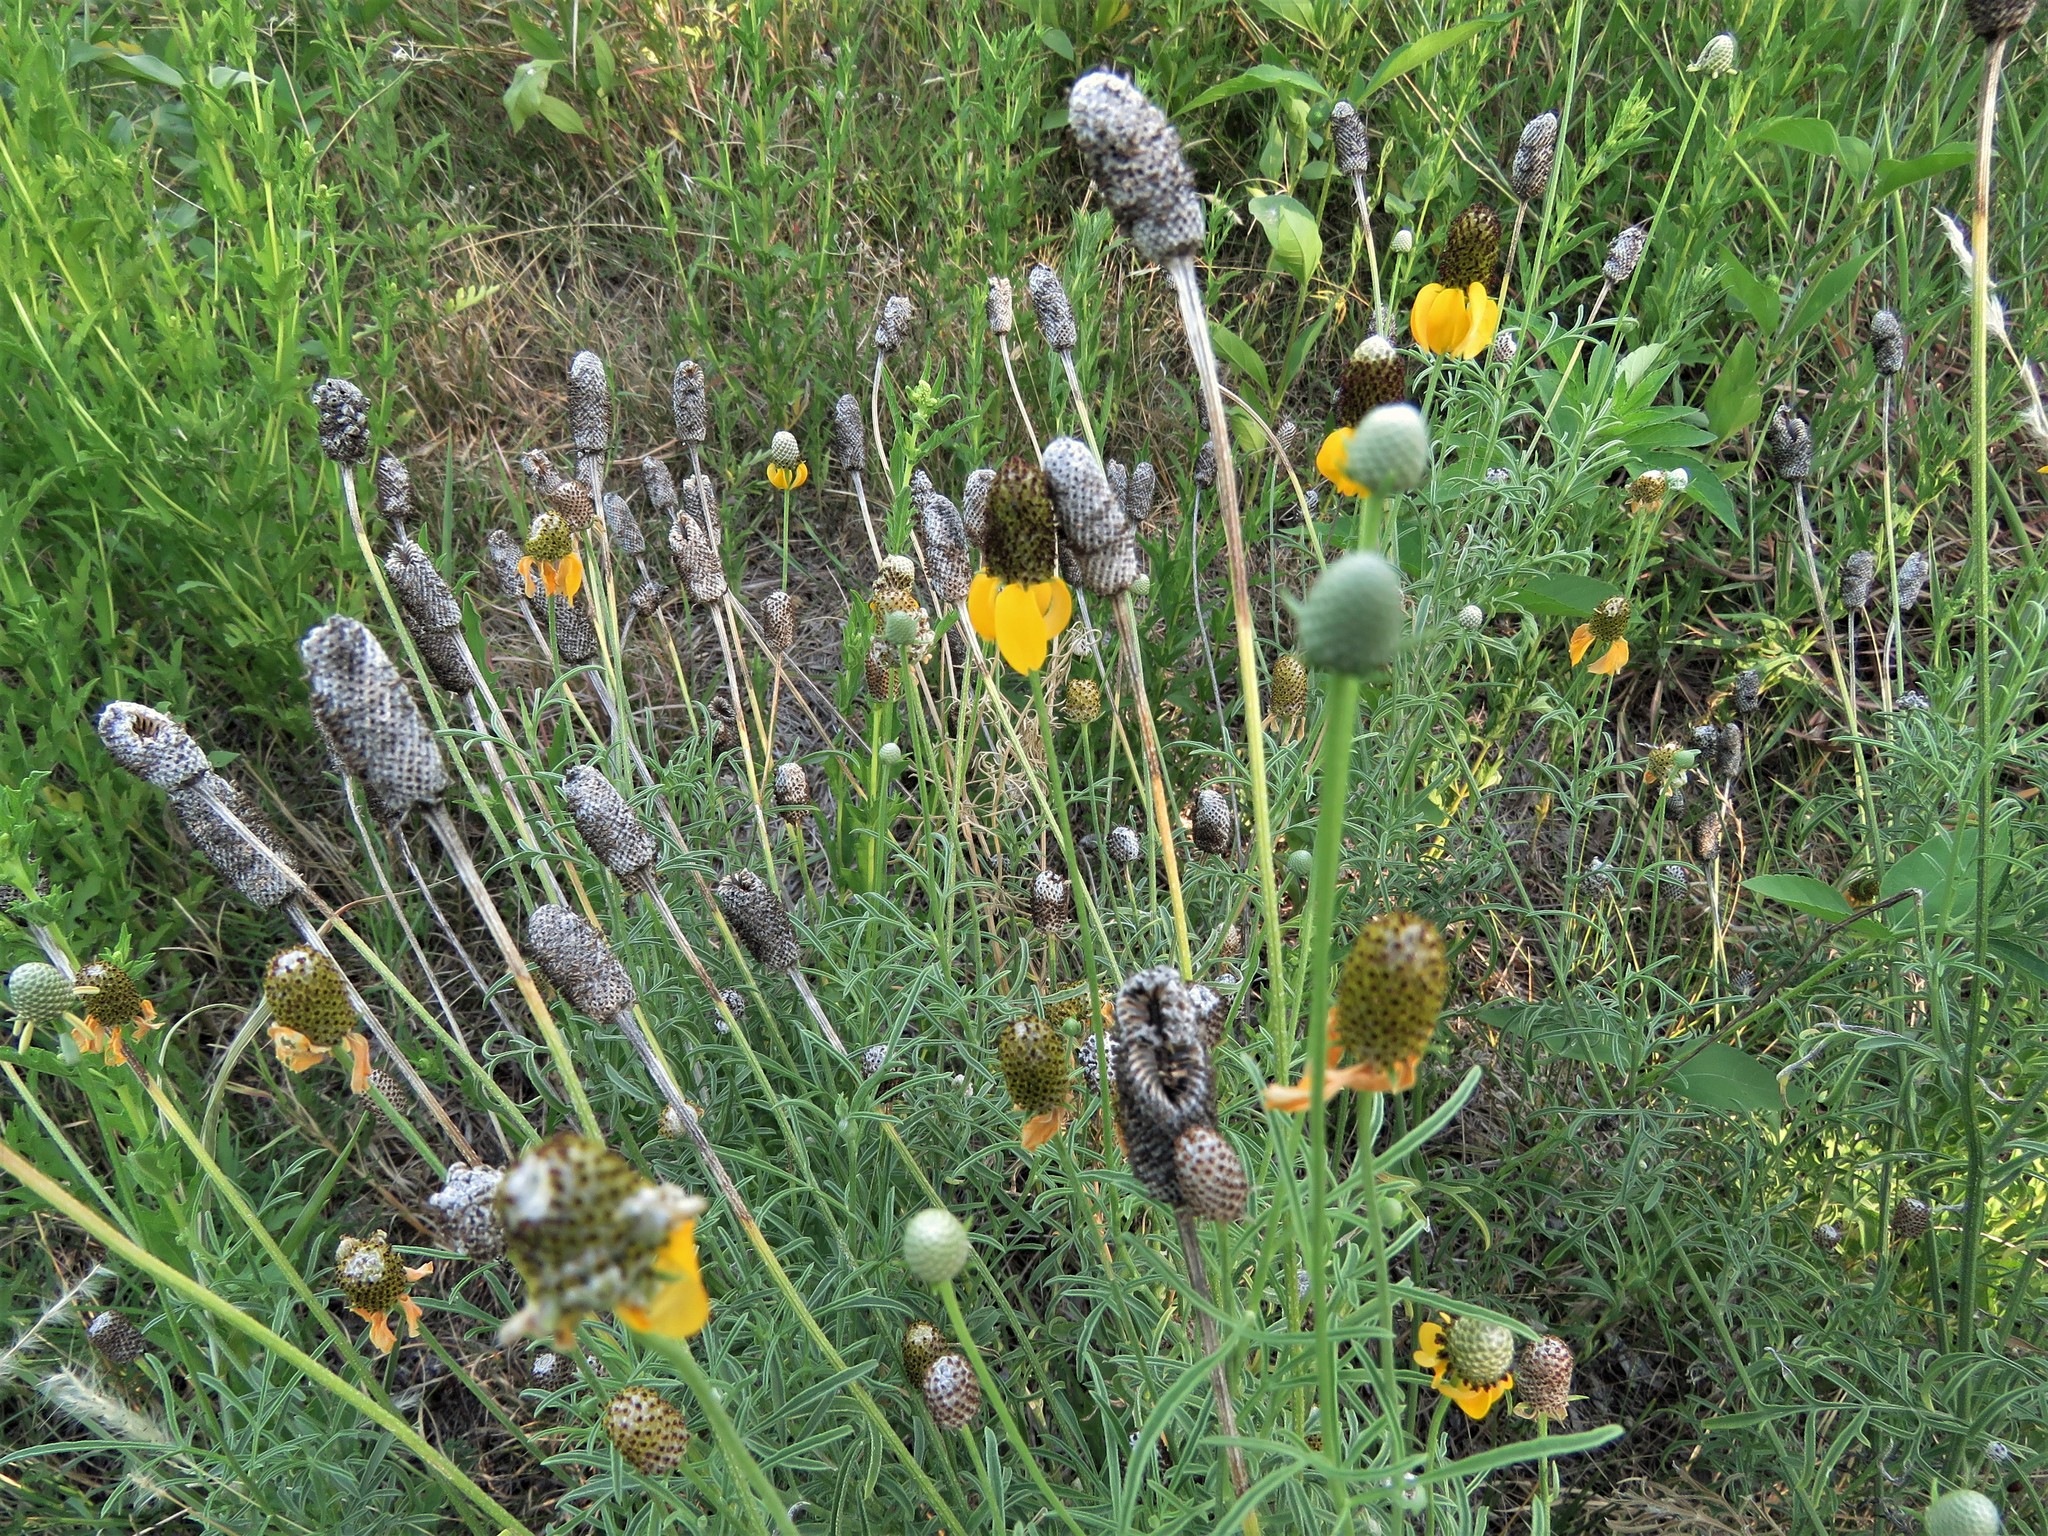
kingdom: Plantae
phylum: Tracheophyta
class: Magnoliopsida
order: Asterales
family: Asteraceae
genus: Ratibida
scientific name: Ratibida columnifera
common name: Prairie coneflower
